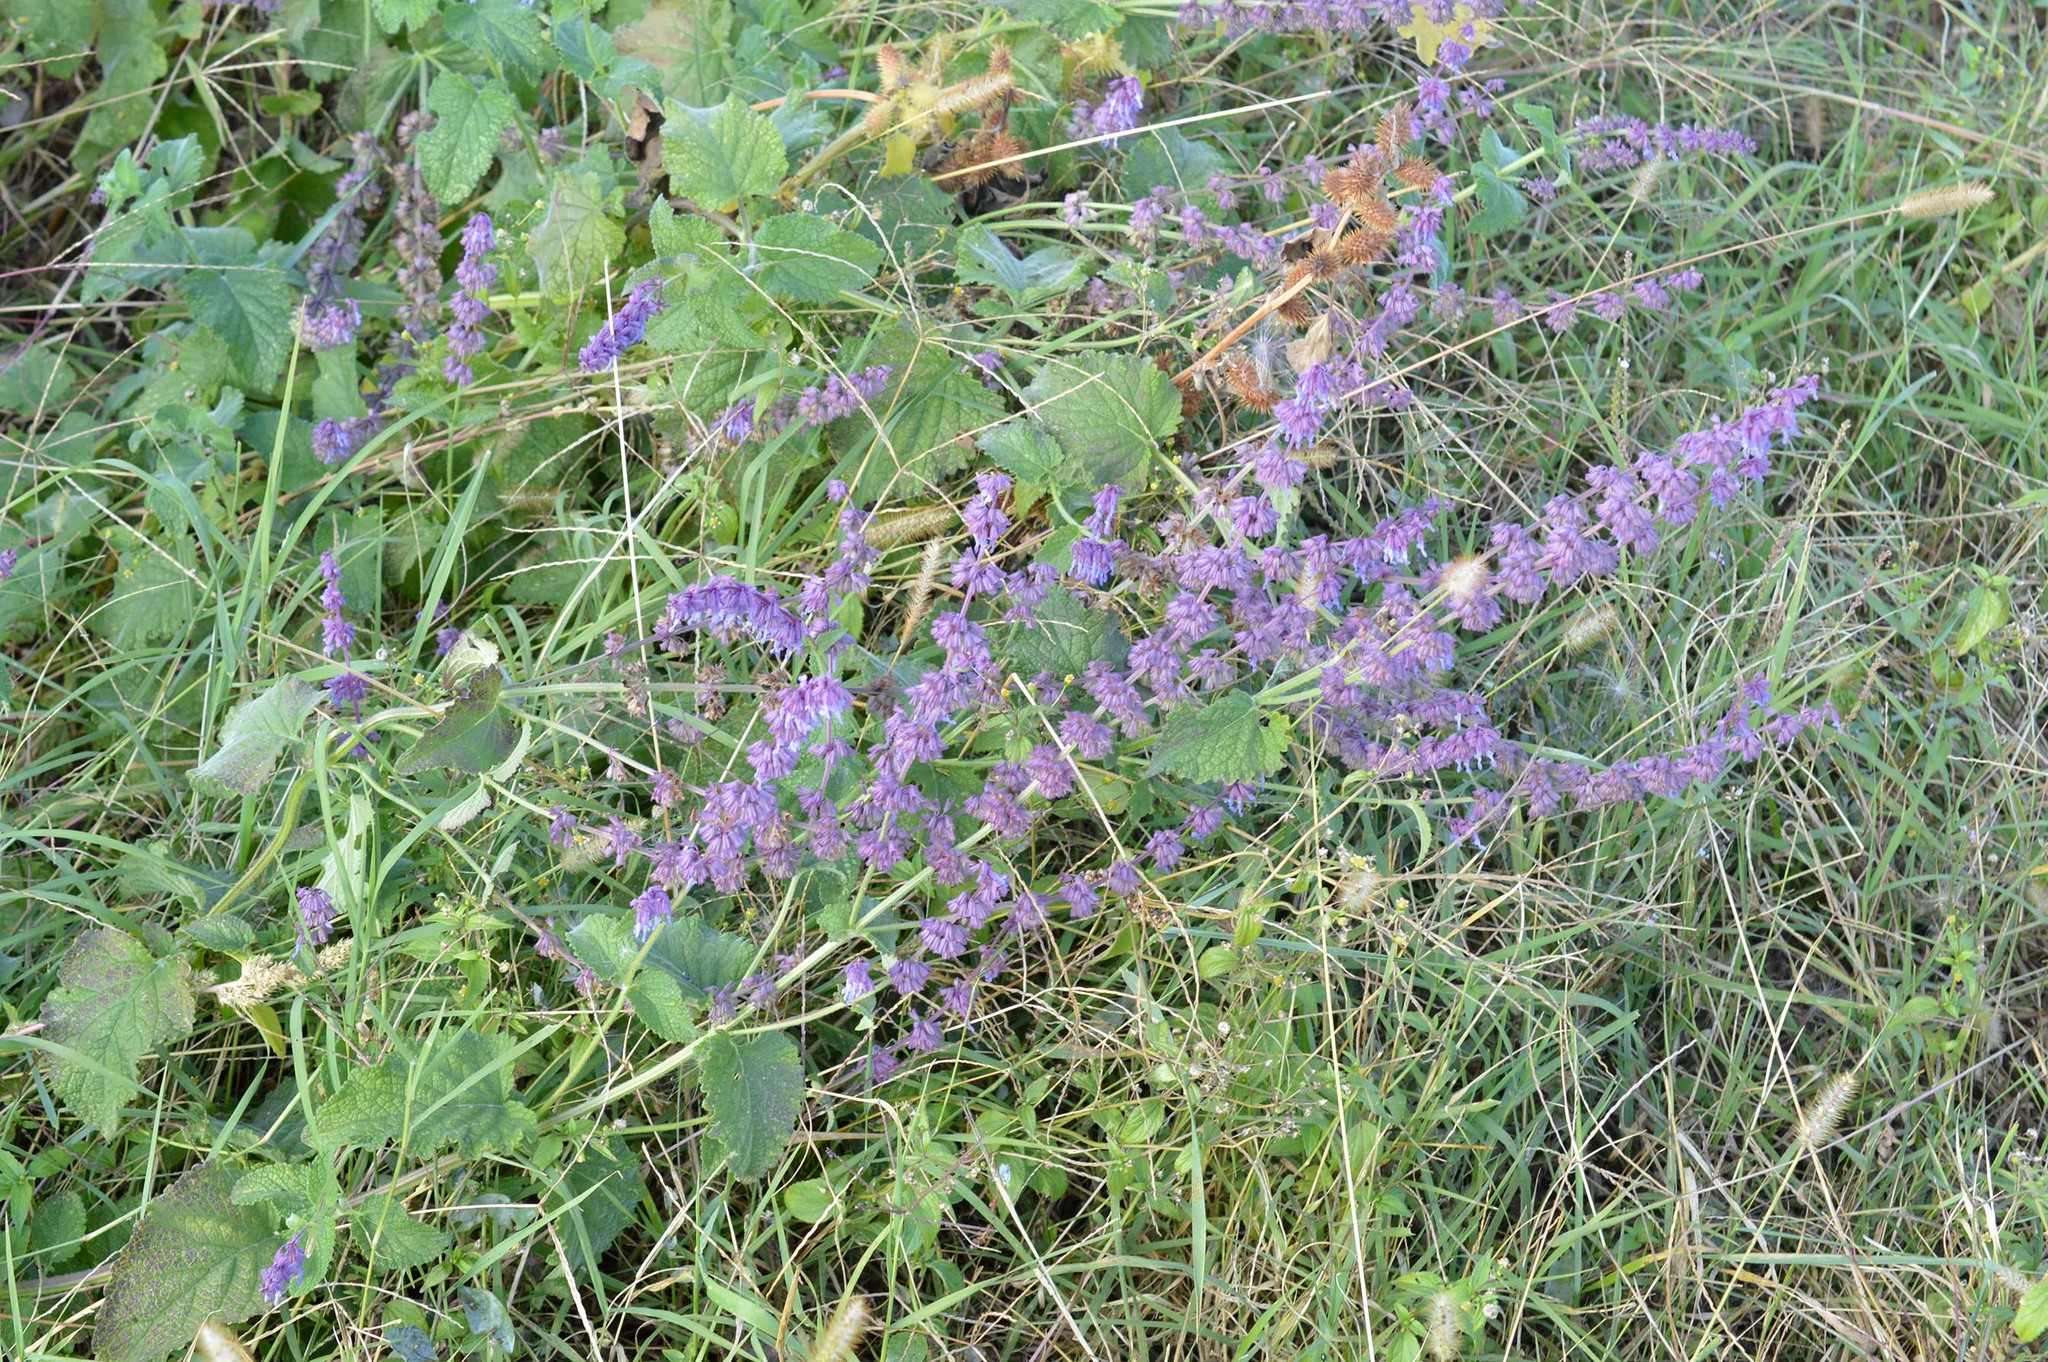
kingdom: Plantae
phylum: Tracheophyta
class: Magnoliopsida
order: Lamiales
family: Lamiaceae
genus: Salvia
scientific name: Salvia verticillata
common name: Whorled clary
